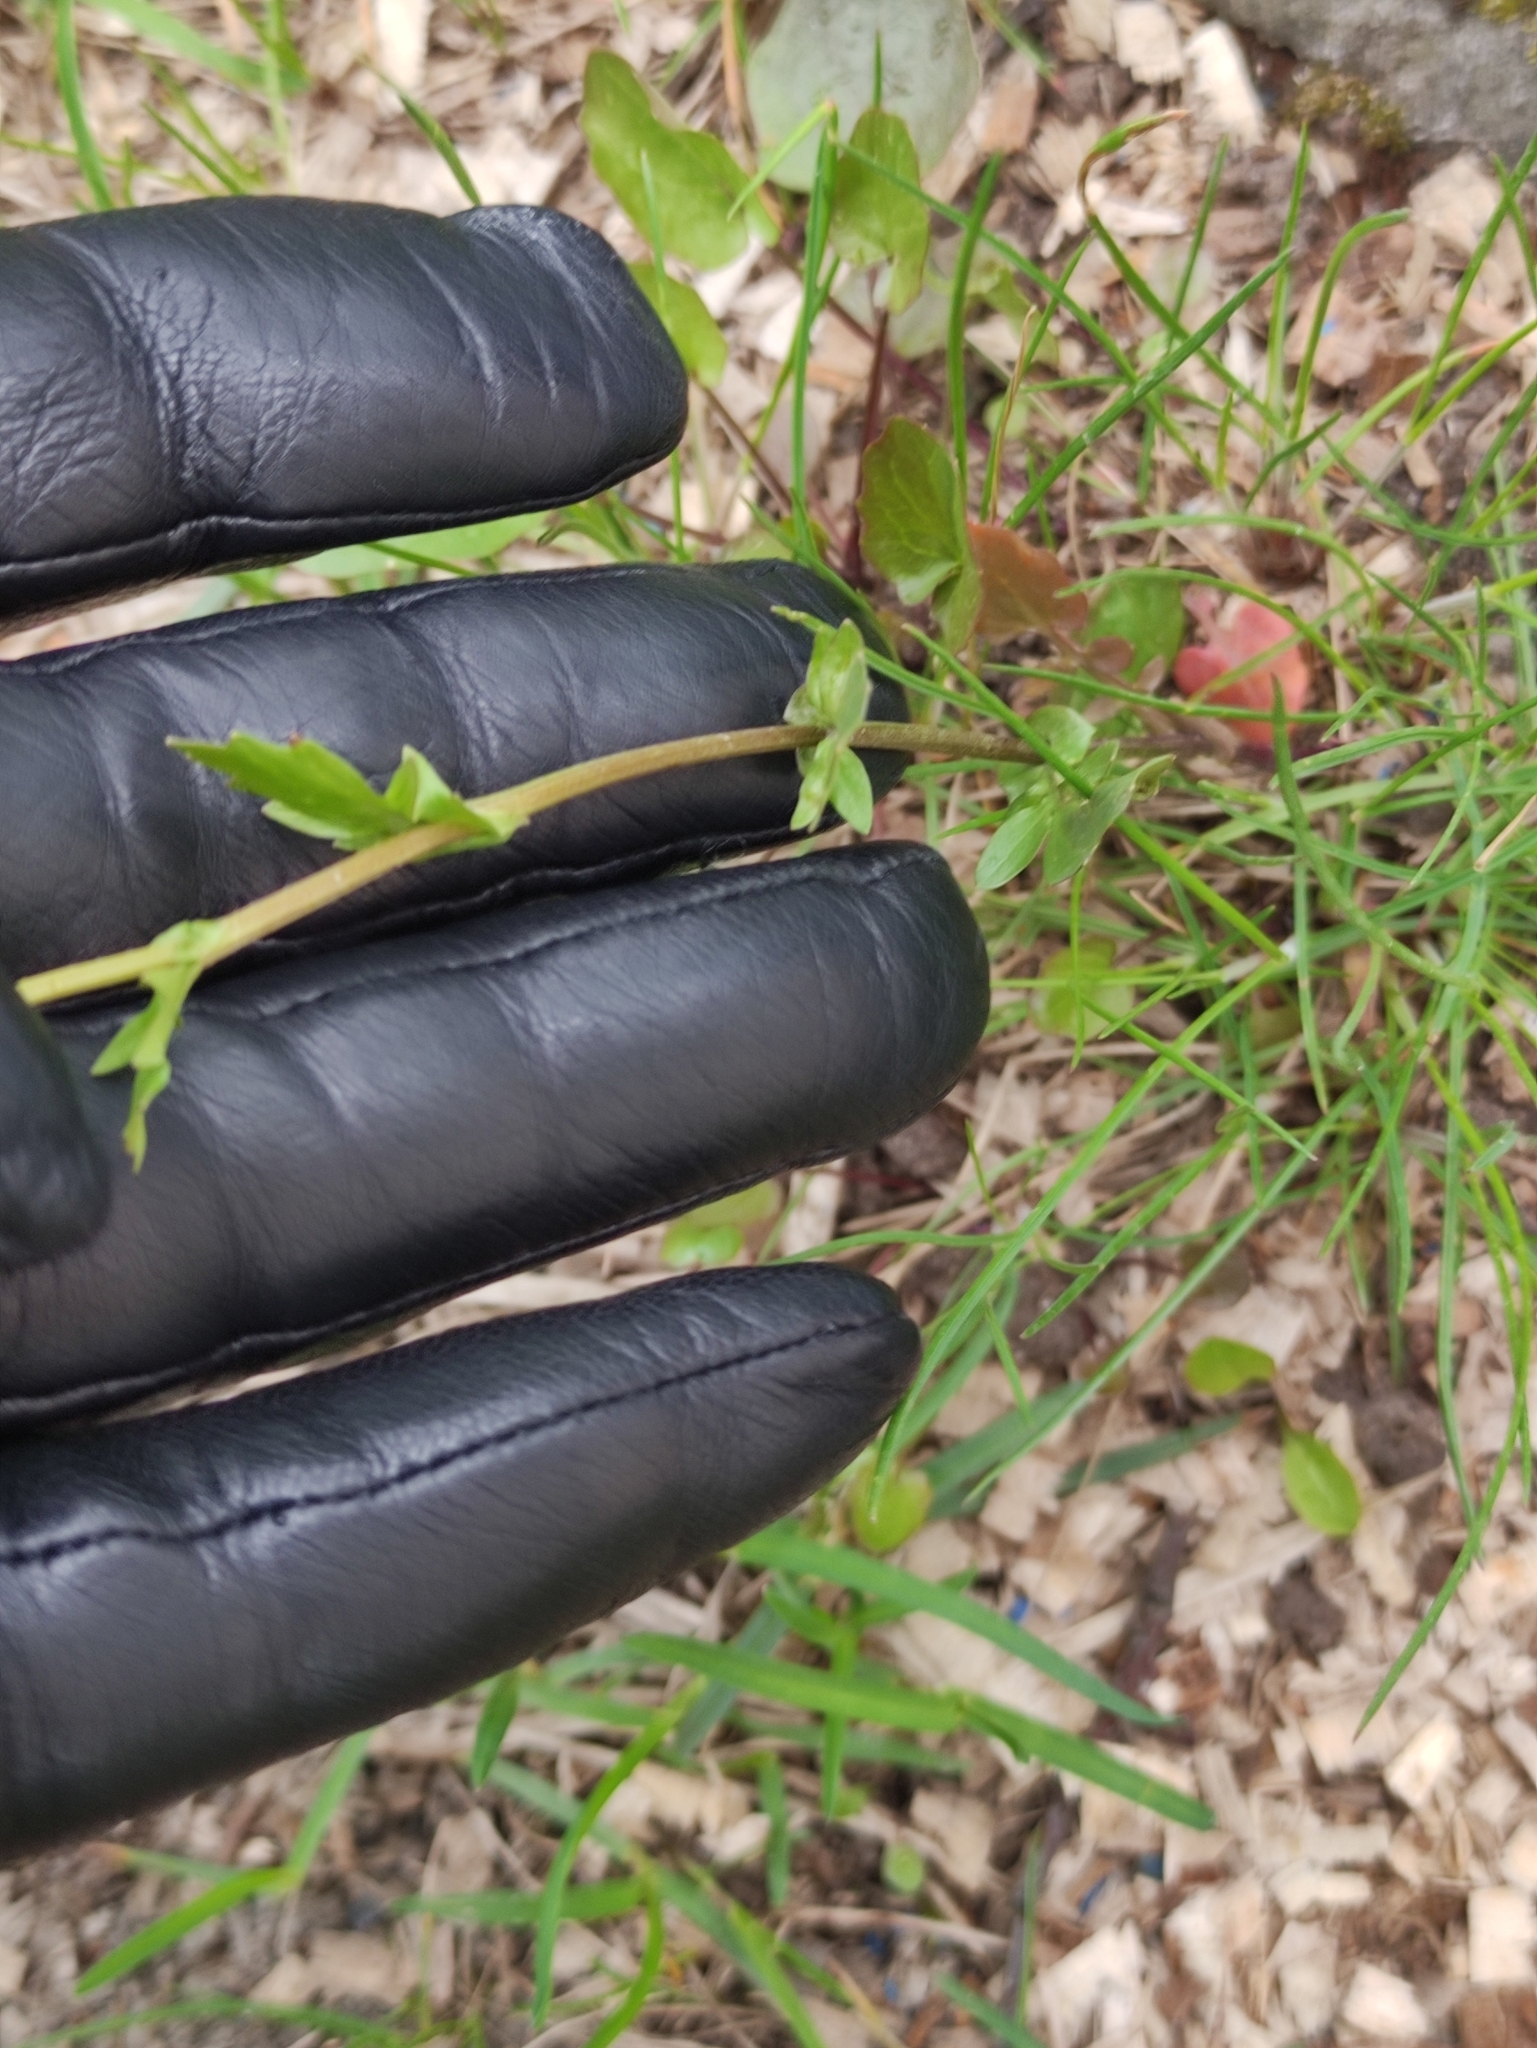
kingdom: Plantae
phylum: Tracheophyta
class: Magnoliopsida
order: Brassicales
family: Brassicaceae
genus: Barbarea
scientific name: Barbarea vulgaris
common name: Cressy-greens
